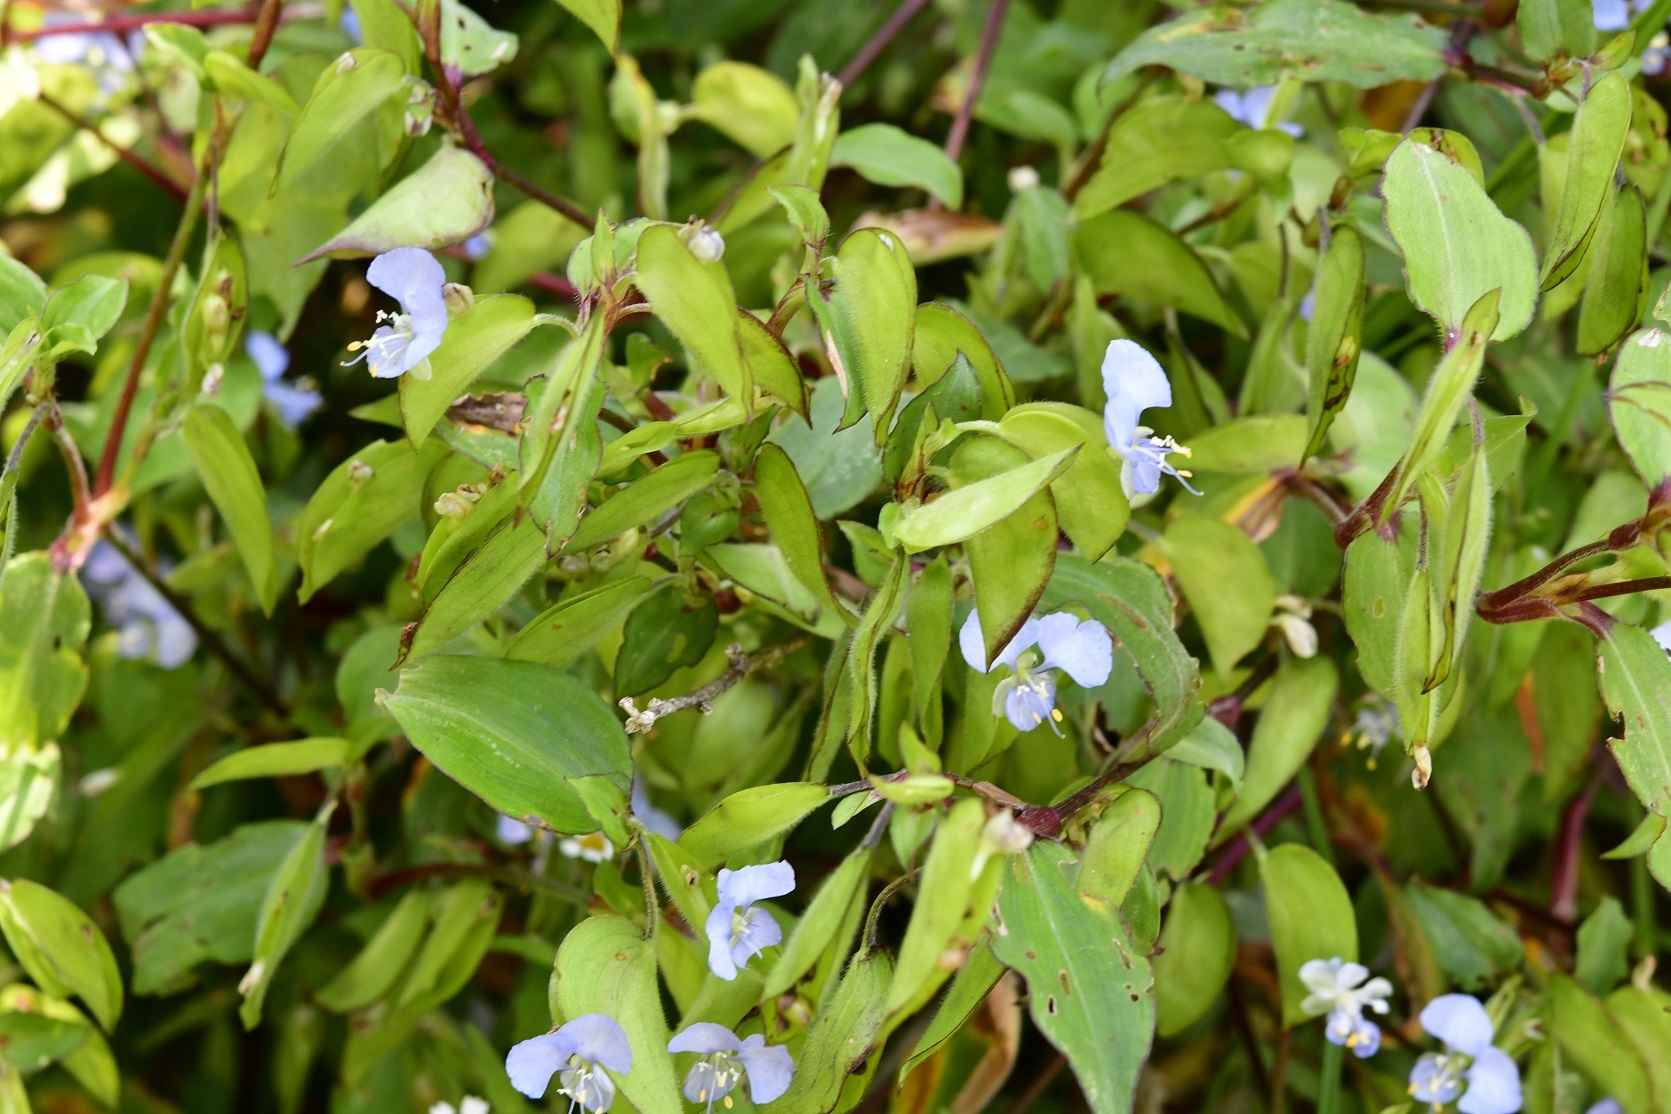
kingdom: Plantae
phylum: Tracheophyta
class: Liliopsida
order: Commelinales
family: Commelinaceae
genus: Commelina
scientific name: Commelina erecta
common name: Blousel blommetjie
